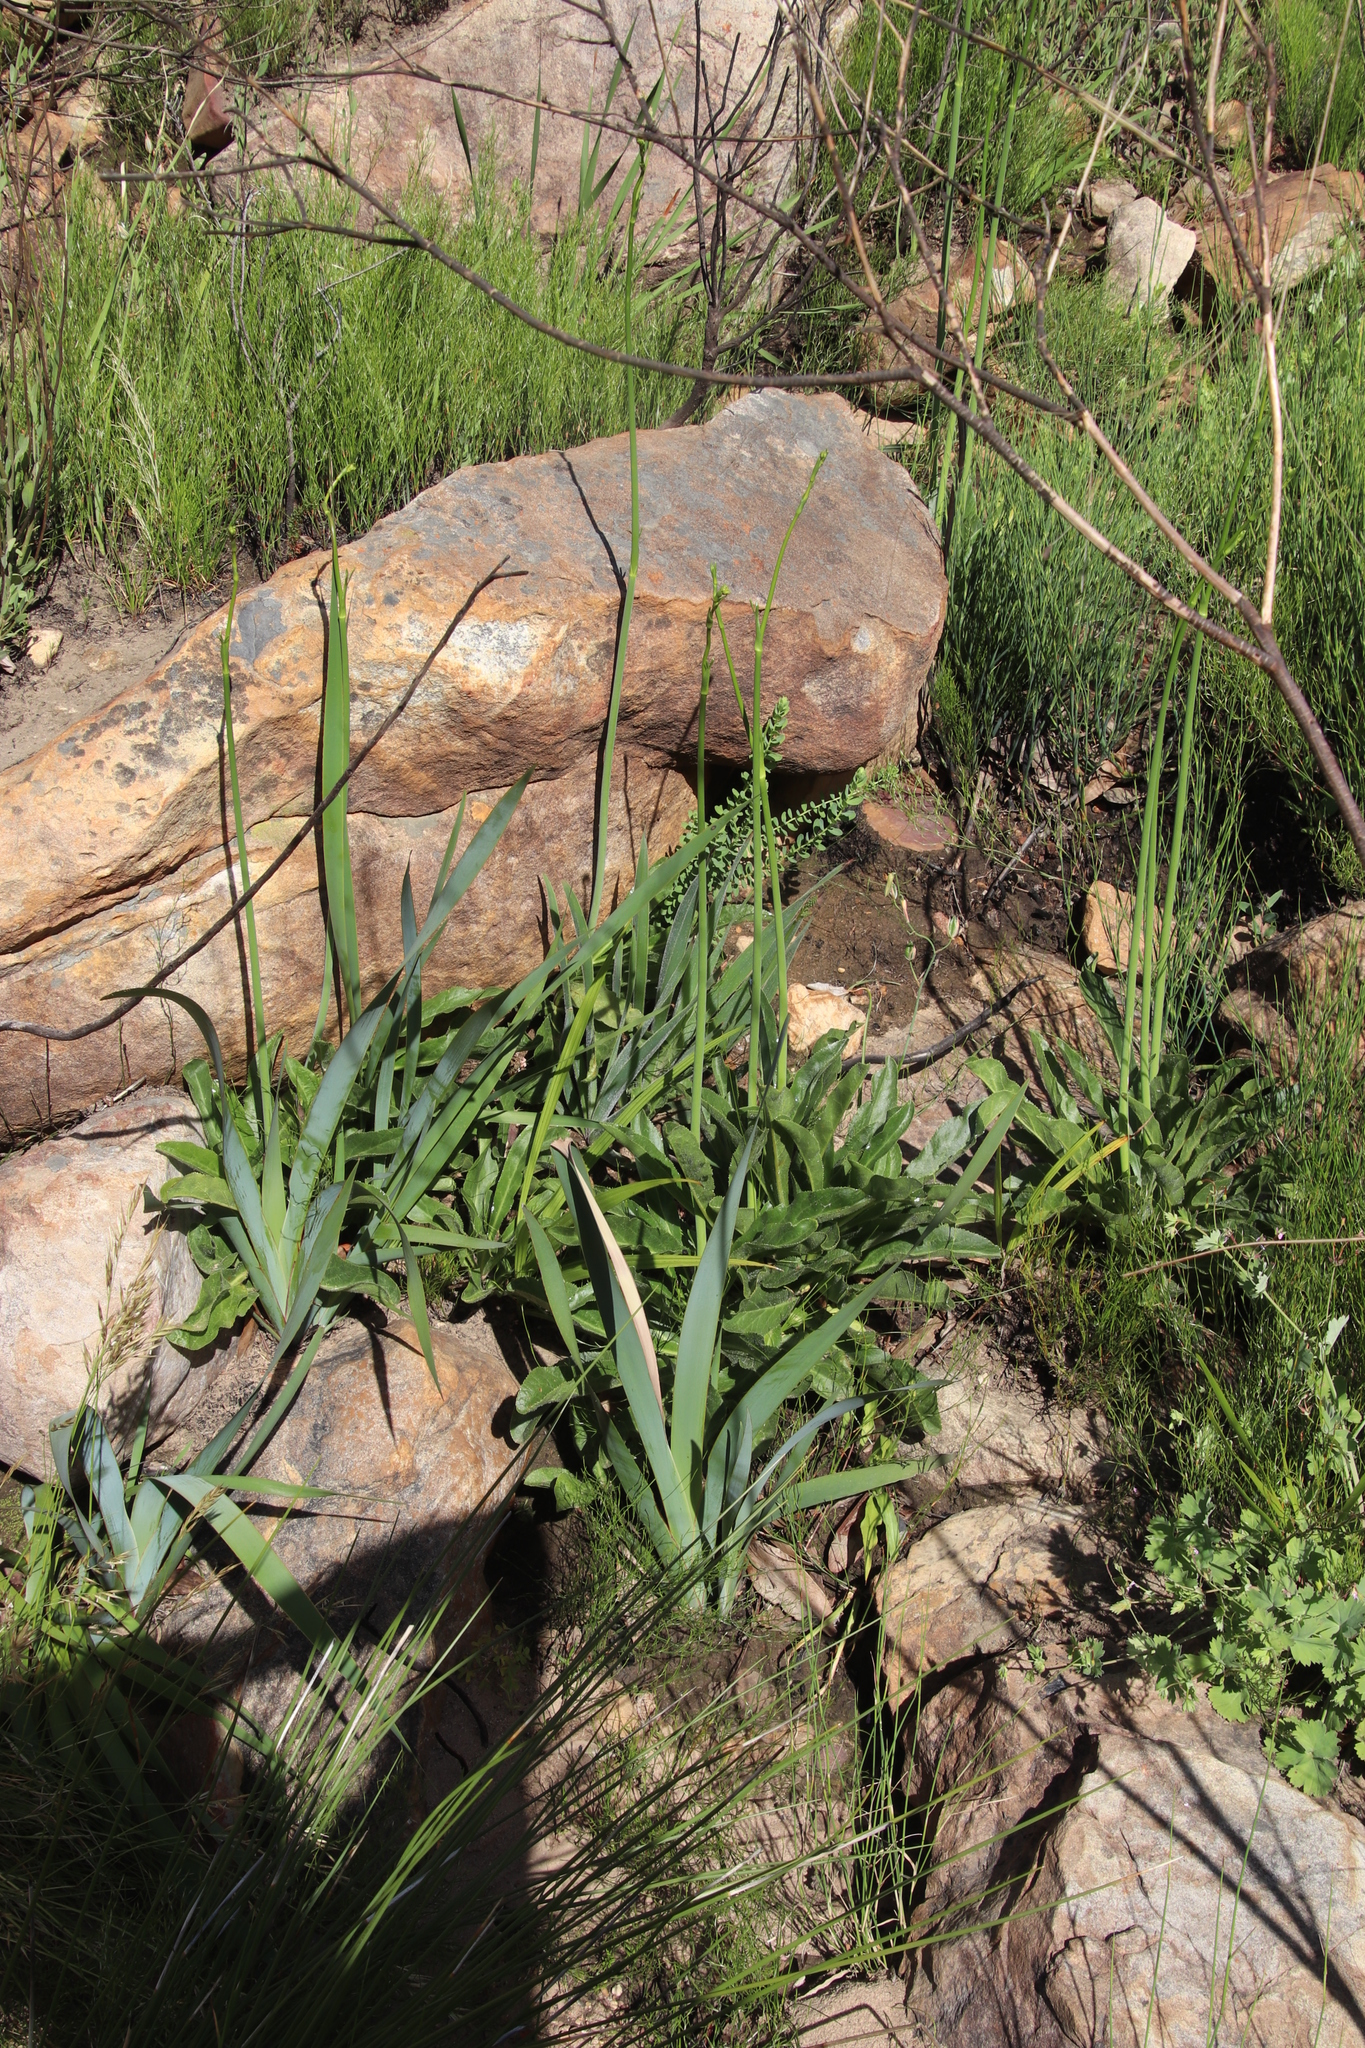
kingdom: Plantae
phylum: Tracheophyta
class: Magnoliopsida
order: Apiales
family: Apiaceae
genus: Lichtensteinia
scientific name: Lichtensteinia trifida
